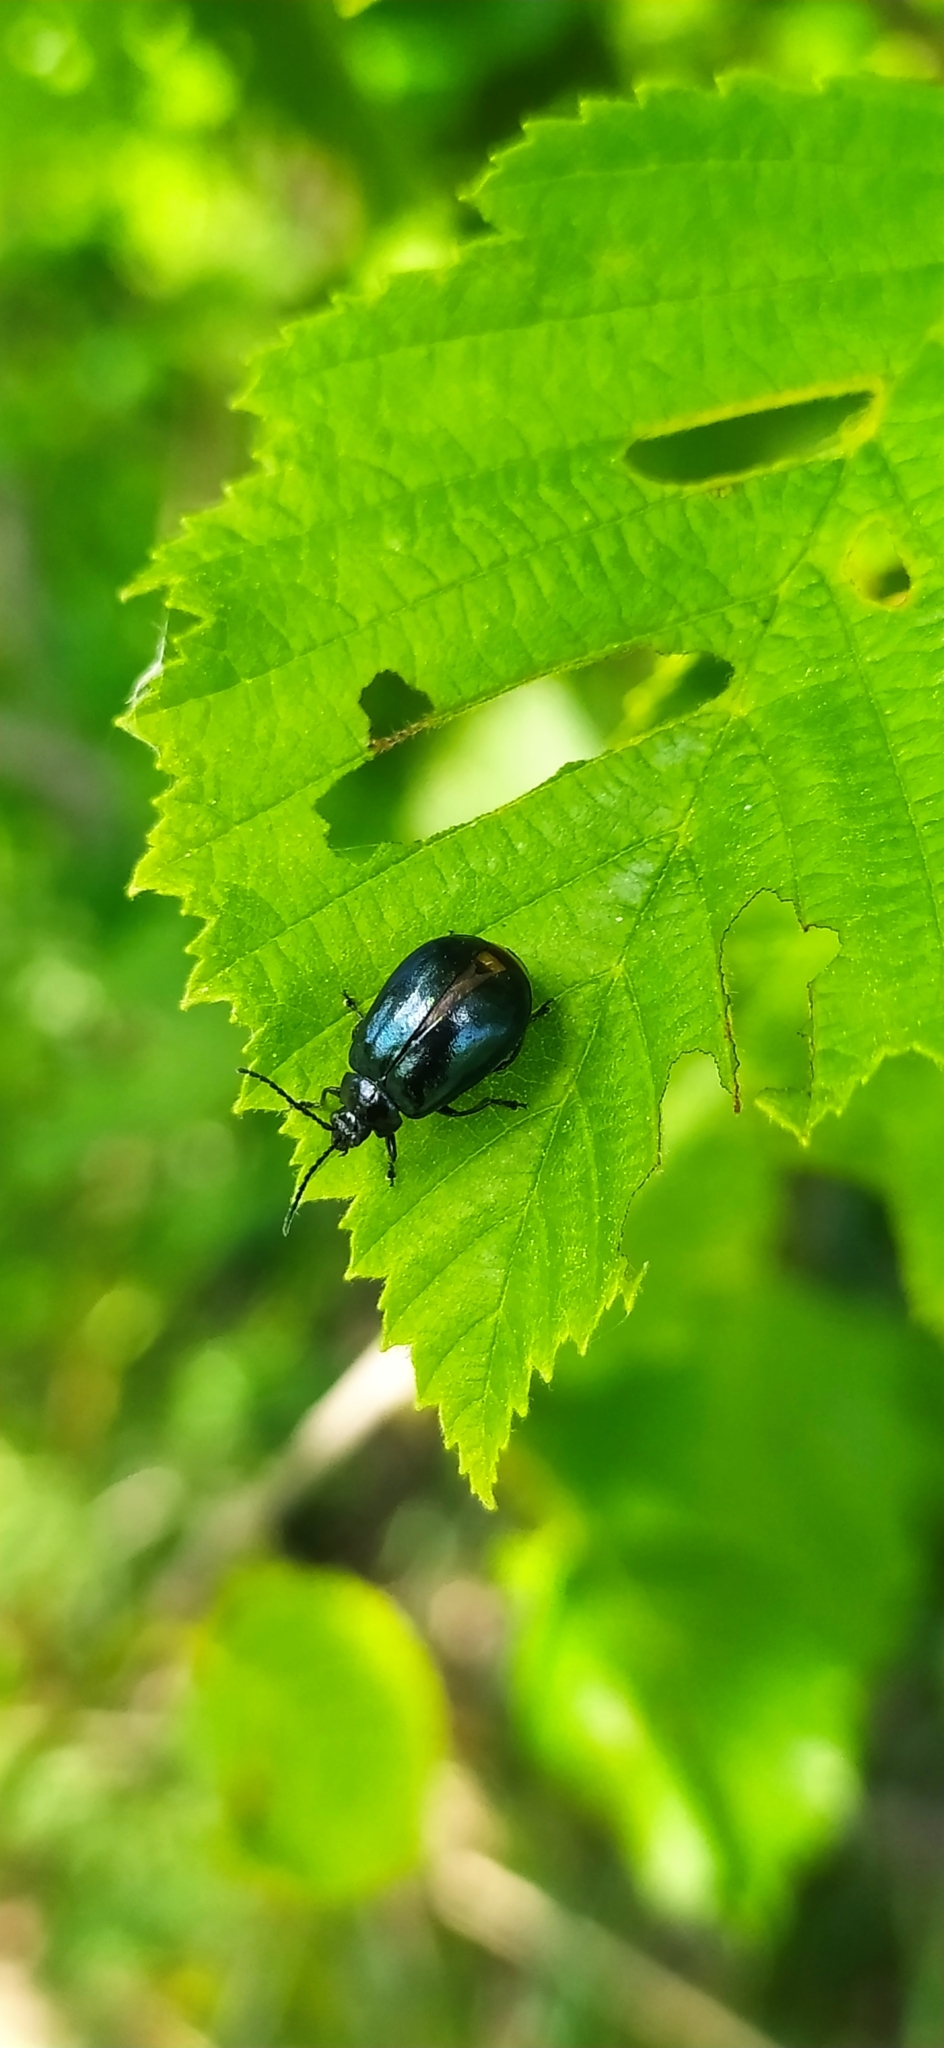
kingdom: Animalia
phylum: Arthropoda
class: Insecta
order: Coleoptera
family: Chrysomelidae
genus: Agelastica
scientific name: Agelastica alni
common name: Alder leaf beetle
